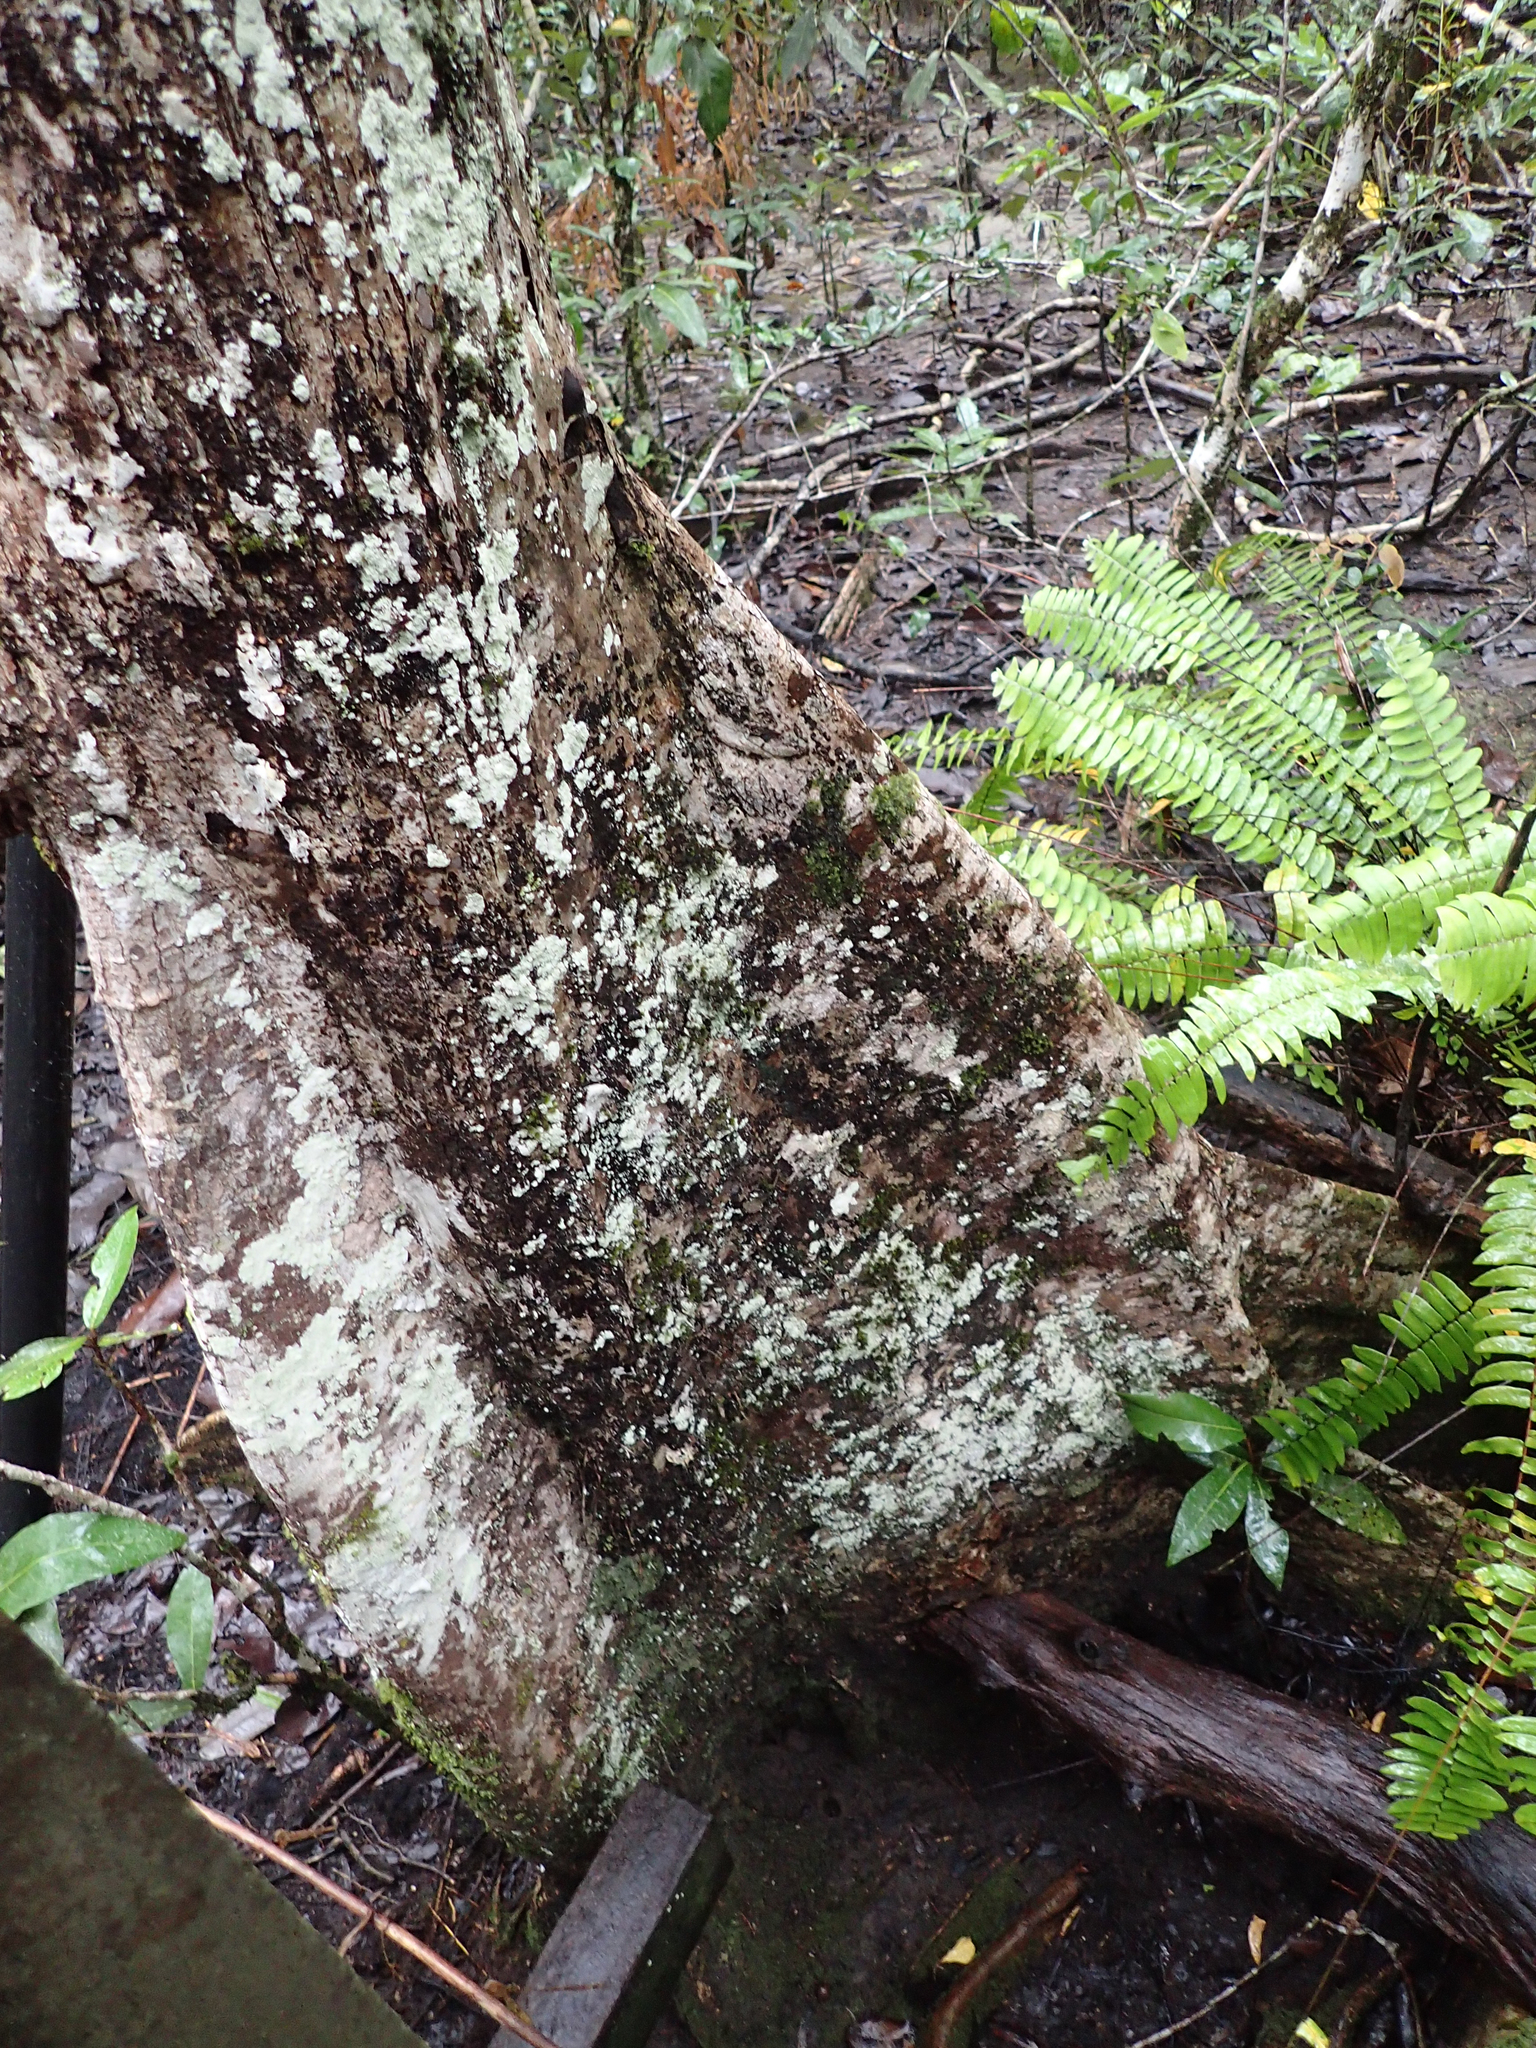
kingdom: Plantae
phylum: Tracheophyta
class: Magnoliopsida
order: Malvales
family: Malvaceae
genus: Heritiera
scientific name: Heritiera littoralis
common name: Looking-glass mangrove
